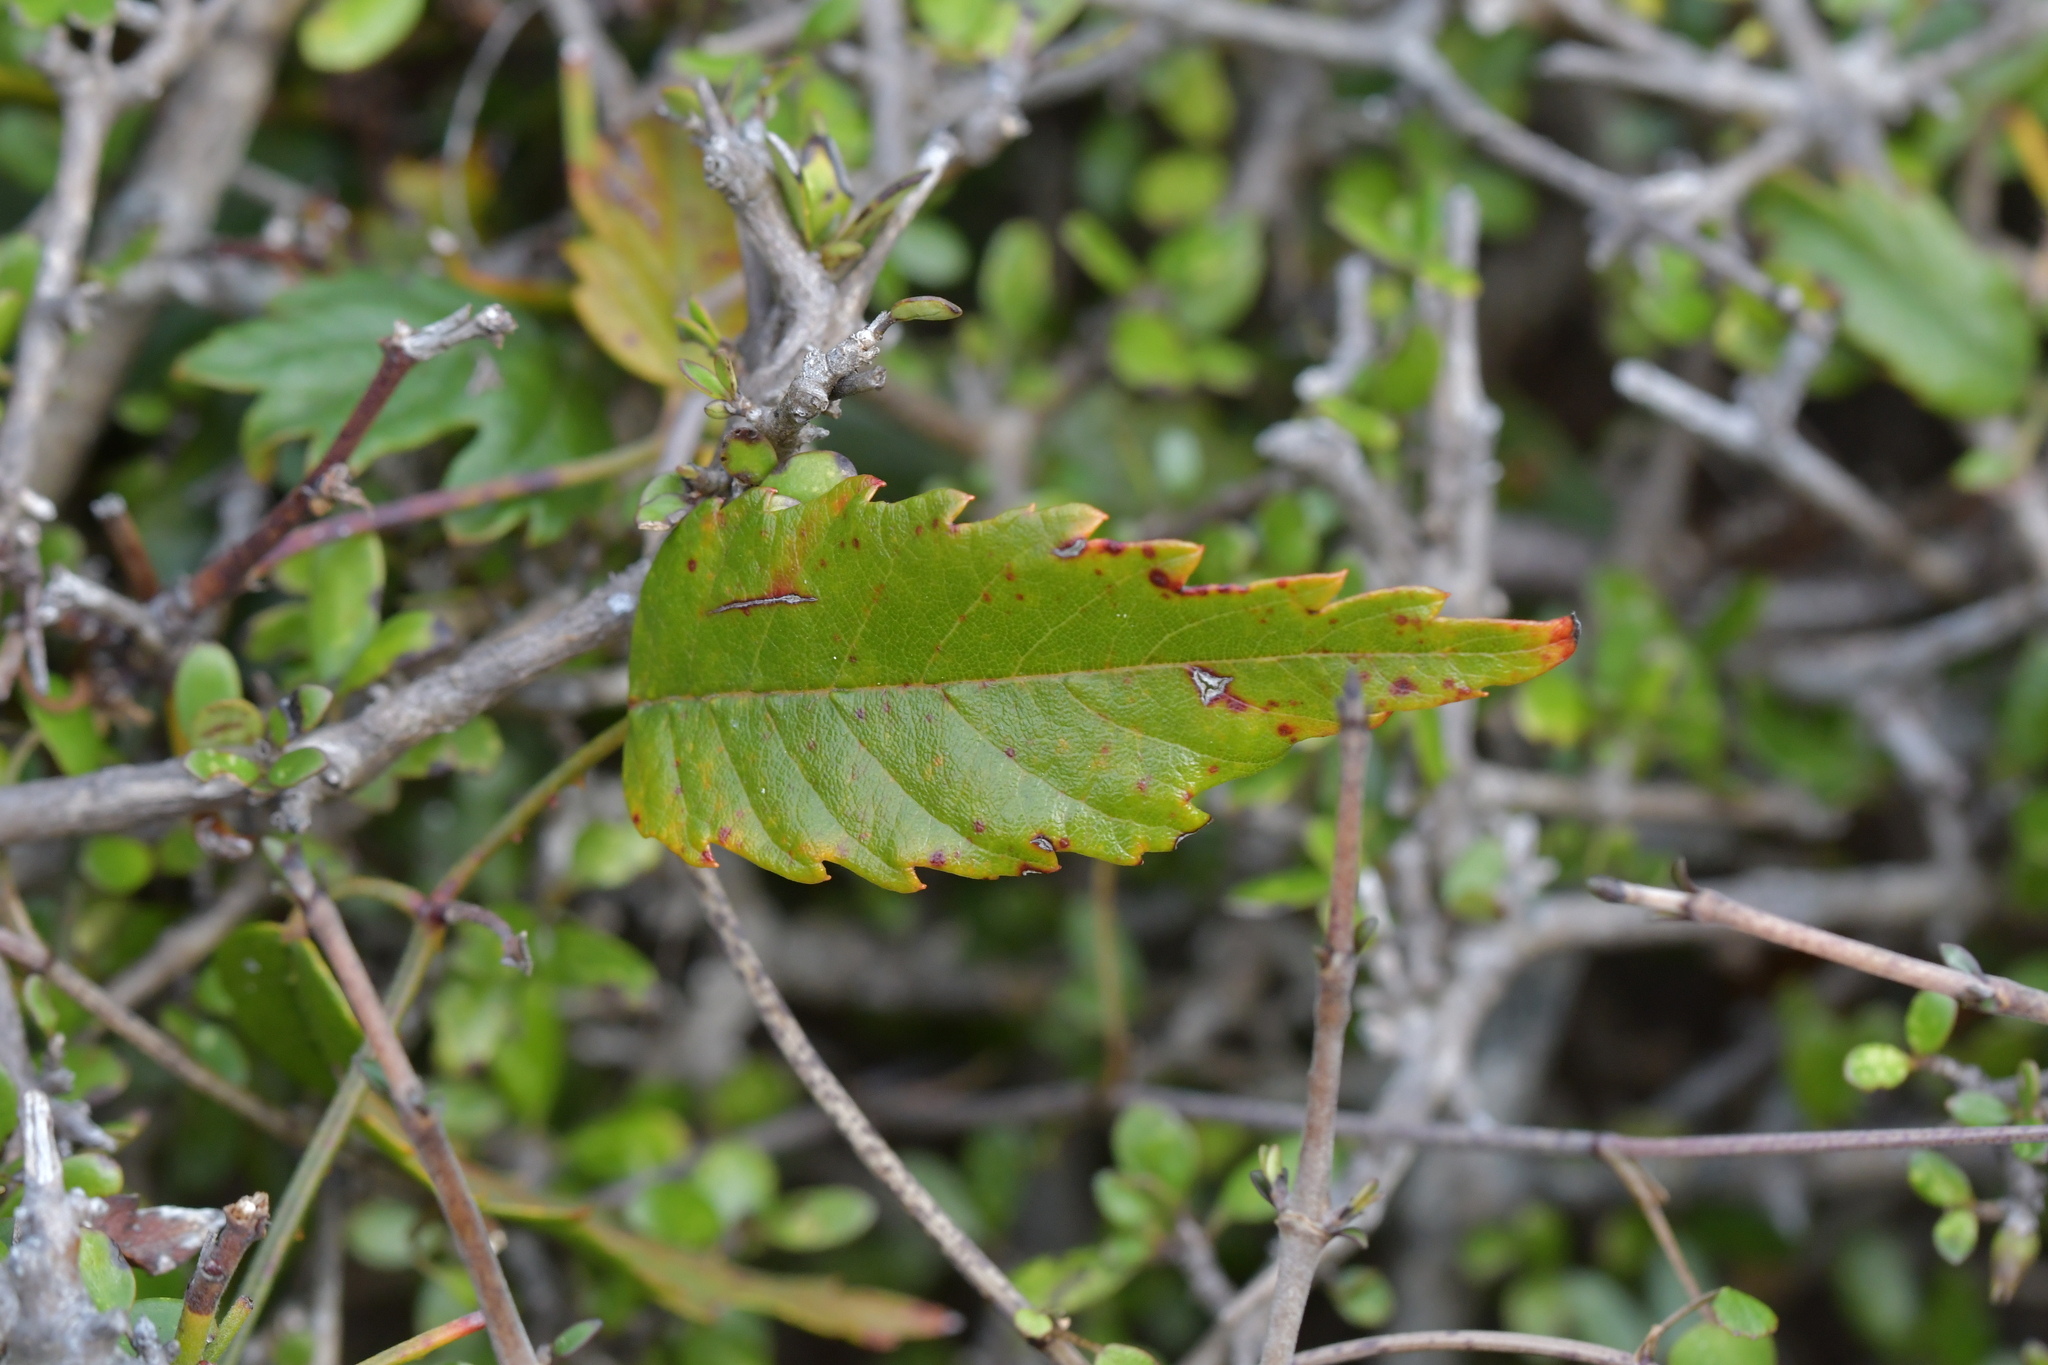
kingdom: Plantae
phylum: Tracheophyta
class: Magnoliopsida
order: Rosales
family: Rosaceae
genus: Rubus
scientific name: Rubus schmidelioides
